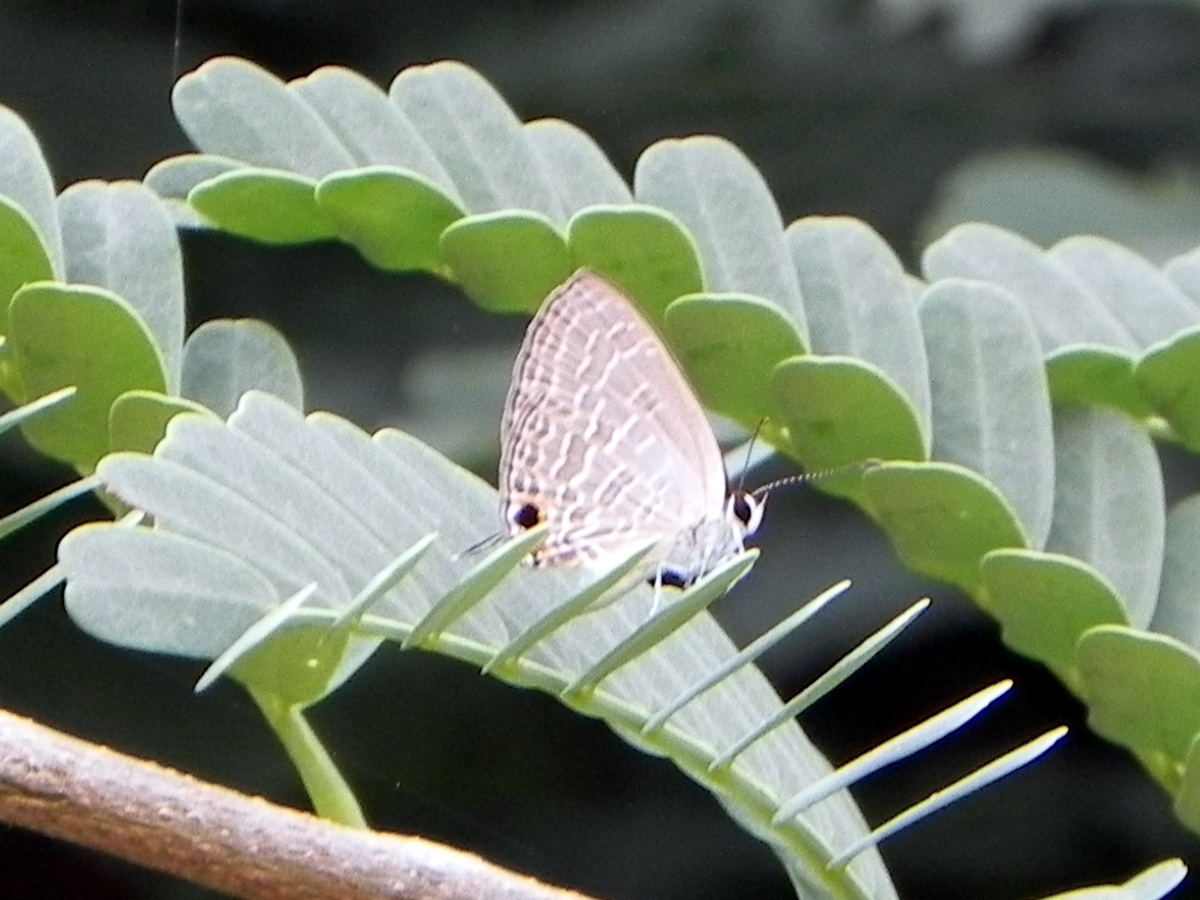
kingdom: Animalia
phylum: Arthropoda
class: Insecta
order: Lepidoptera
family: Lycaenidae
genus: Jamides
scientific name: Jamides bochus
